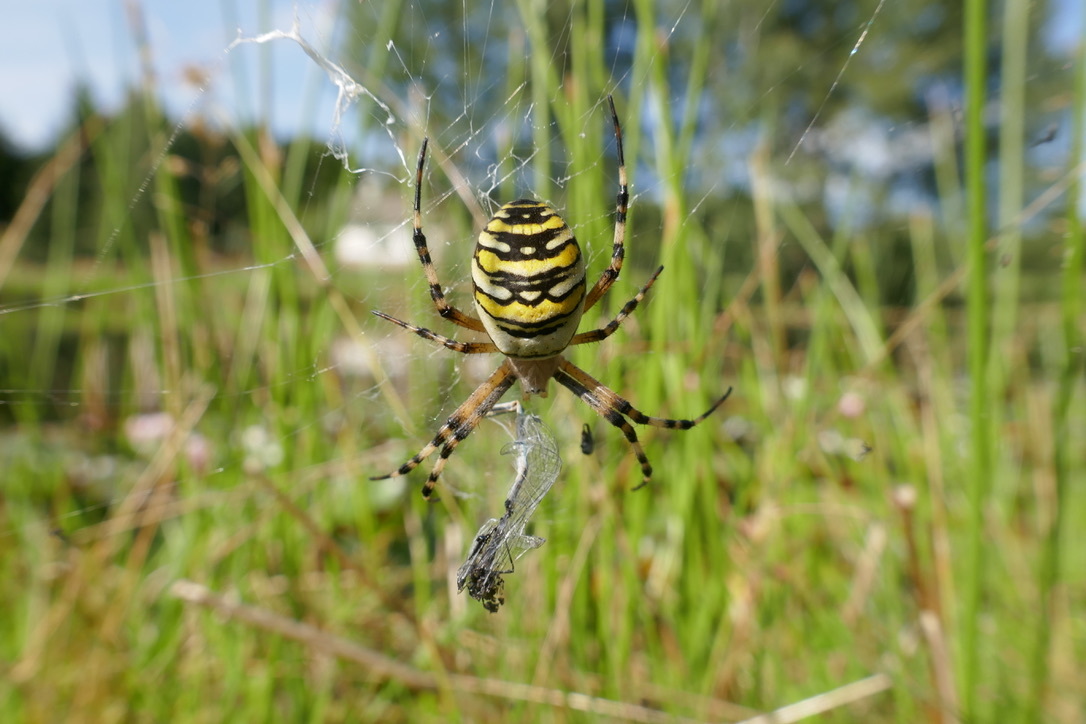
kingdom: Animalia
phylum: Arthropoda
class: Arachnida
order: Araneae
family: Araneidae
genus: Argiope
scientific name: Argiope bruennichi
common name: Wasp spider
